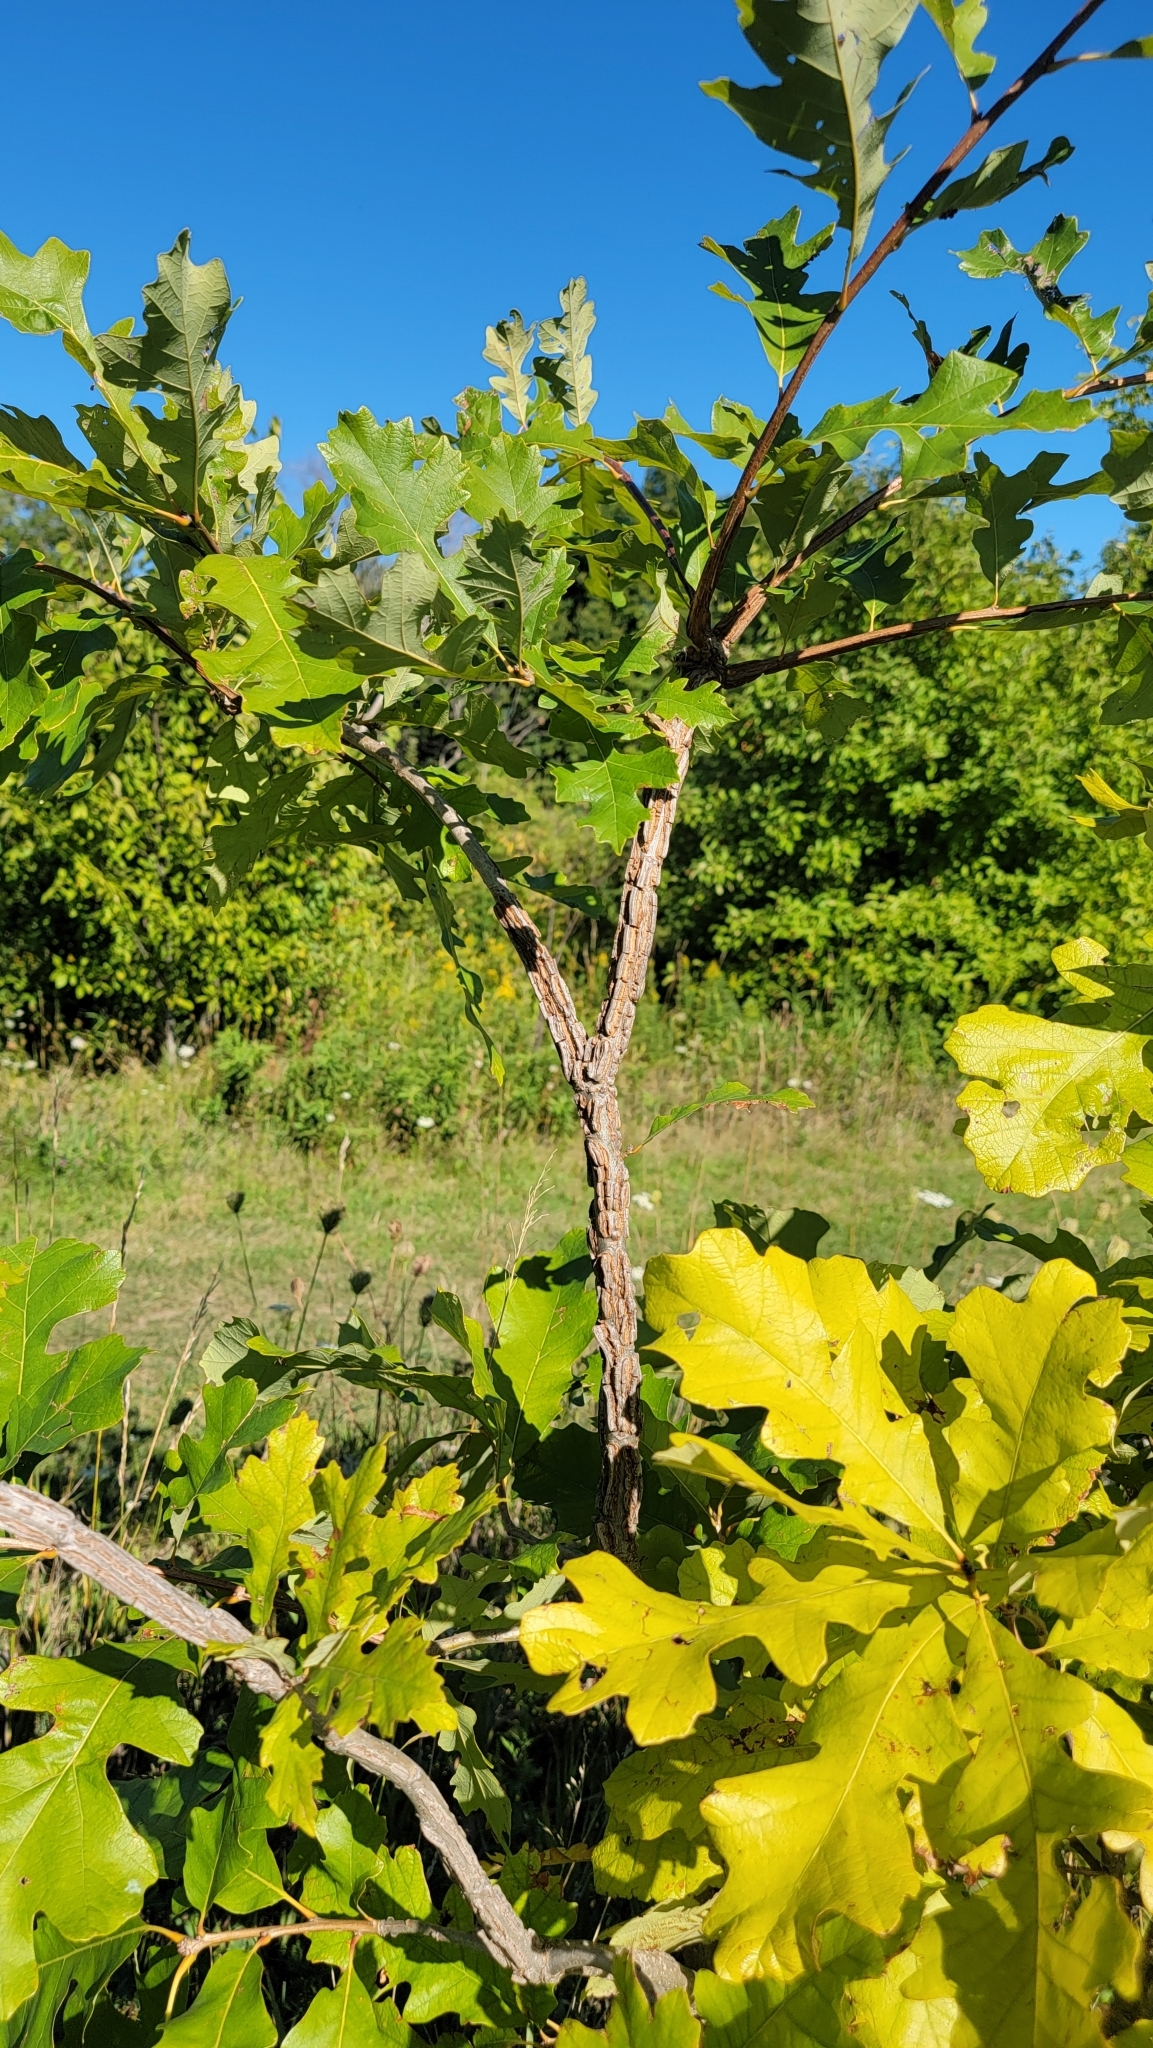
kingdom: Plantae
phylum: Tracheophyta
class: Magnoliopsida
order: Fagales
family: Fagaceae
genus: Quercus
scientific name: Quercus macrocarpa
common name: Bur oak
